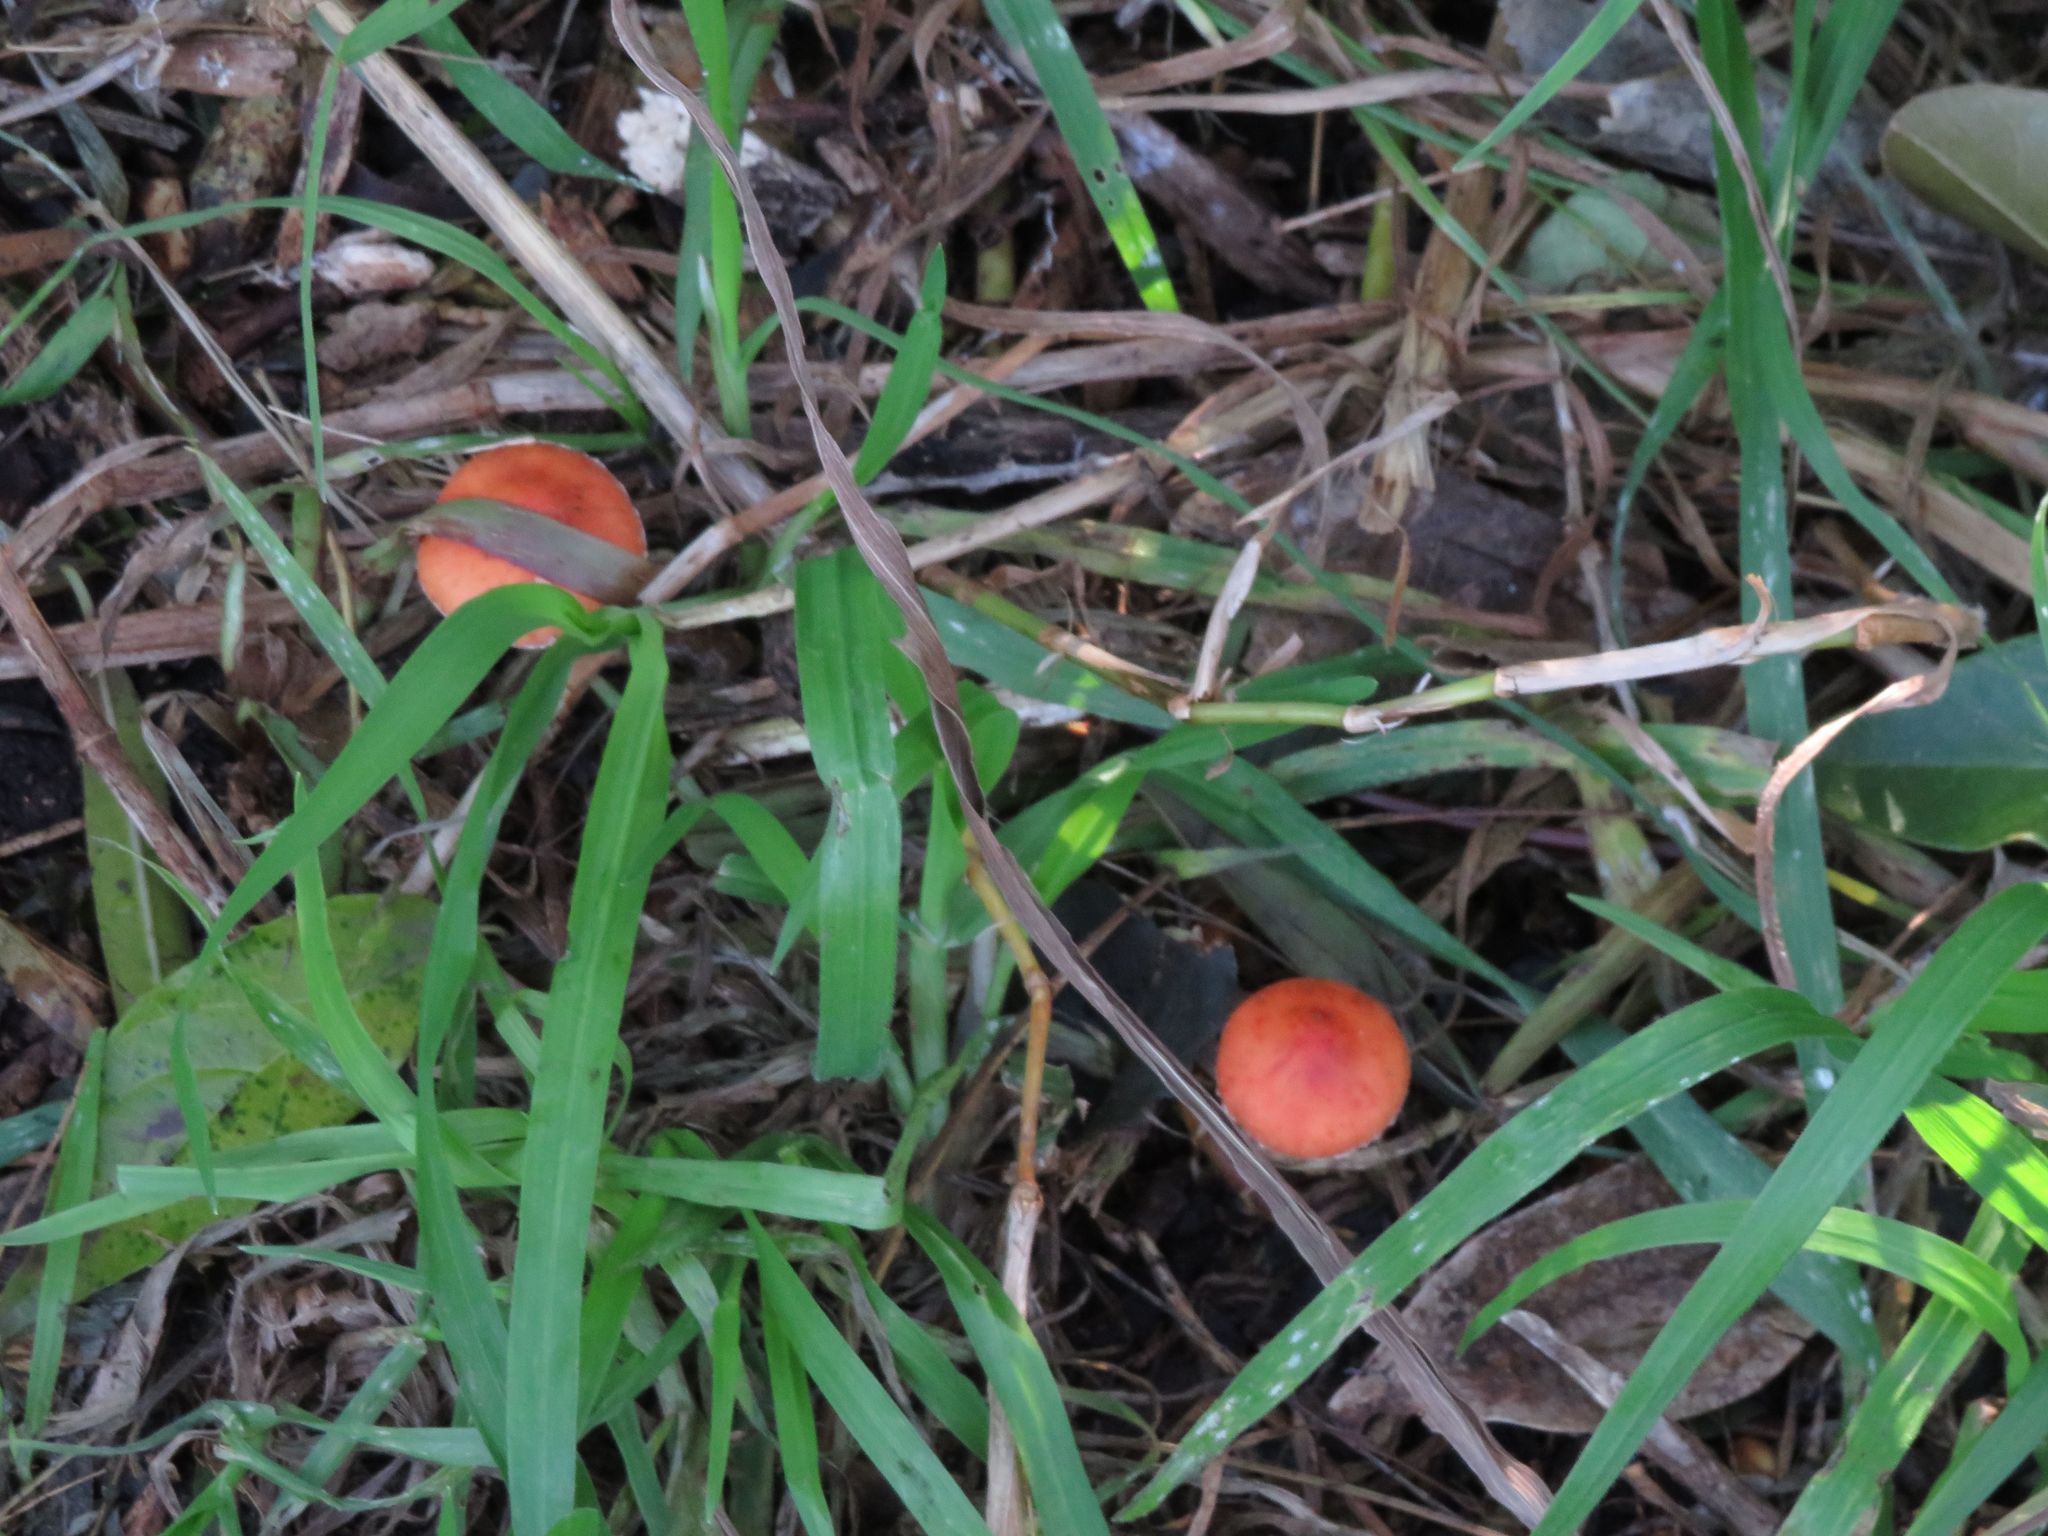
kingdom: Fungi
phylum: Basidiomycota
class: Agaricomycetes
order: Agaricales
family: Strophariaceae
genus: Leratiomyces
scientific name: Leratiomyces ceres
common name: Redlead roundhead
